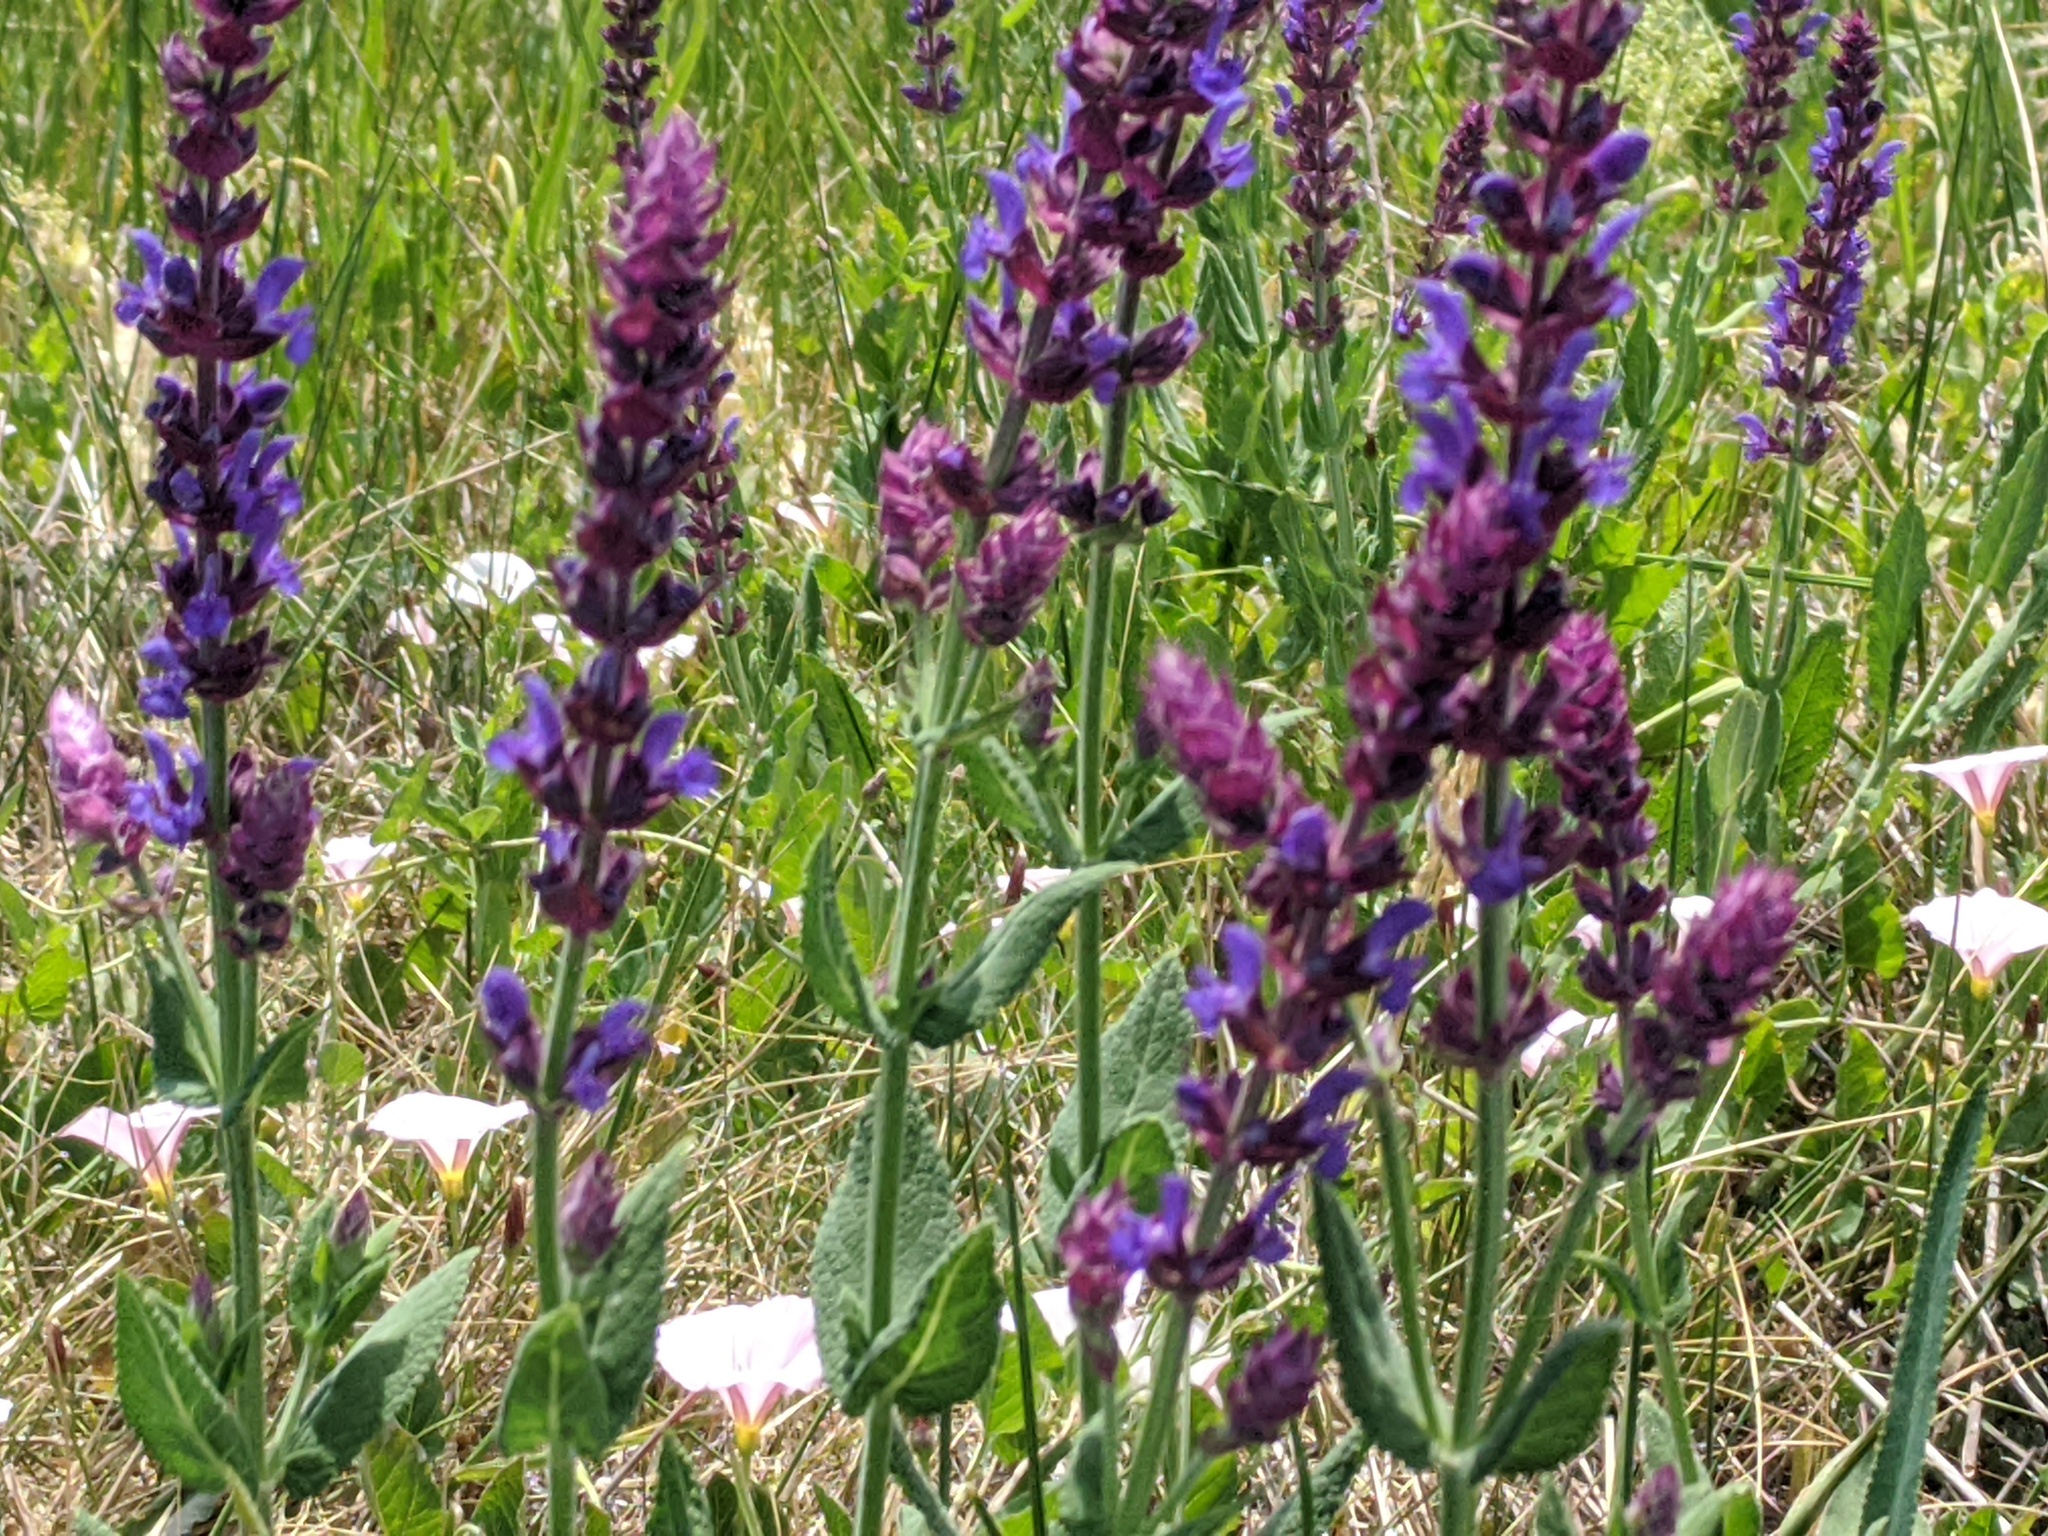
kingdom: Plantae
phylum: Tracheophyta
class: Magnoliopsida
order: Lamiales
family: Lamiaceae
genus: Salvia
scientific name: Salvia nemorosa
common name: Balkan clary
